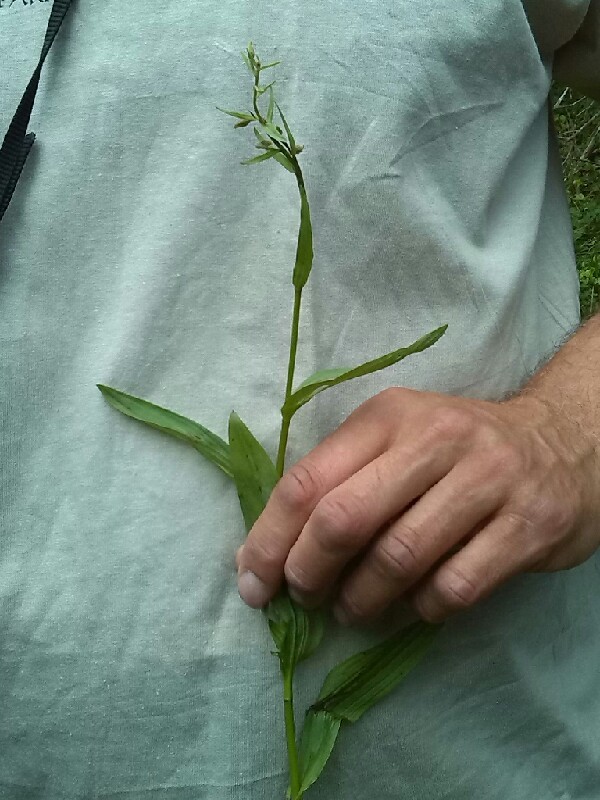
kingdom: Plantae
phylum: Tracheophyta
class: Liliopsida
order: Asparagales
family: Orchidaceae
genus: Epipactis
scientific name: Epipactis palustris
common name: Marsh helleborine
